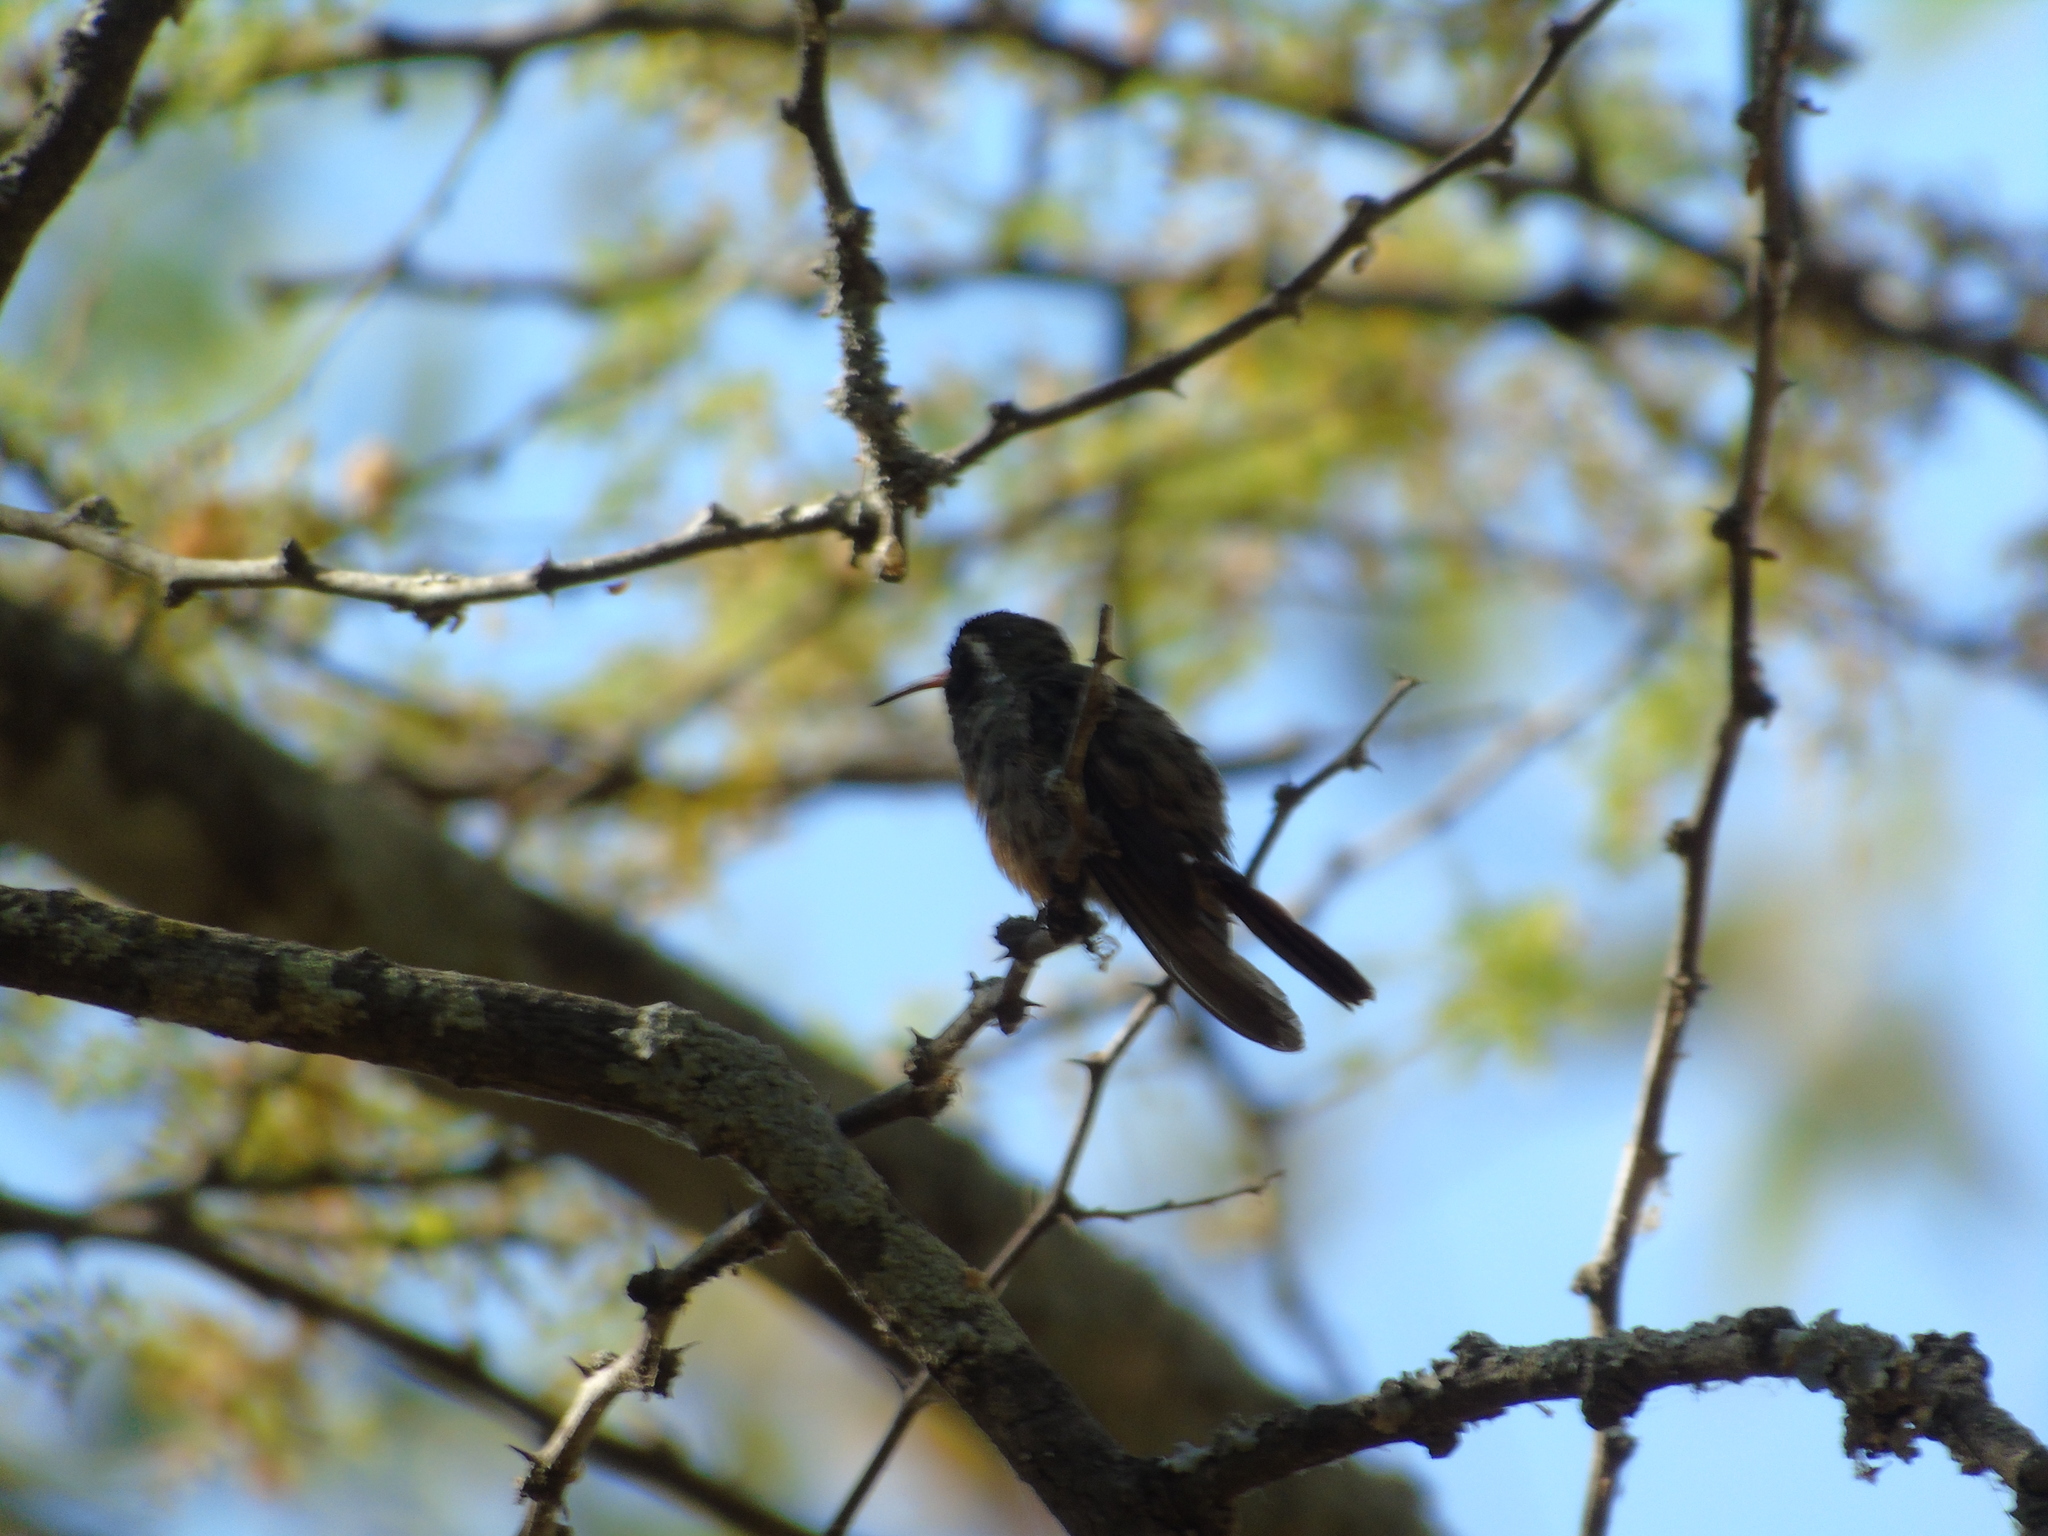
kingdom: Animalia
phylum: Chordata
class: Aves
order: Apodiformes
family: Trochilidae
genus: Basilinna
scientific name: Basilinna xantusii
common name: Xantus's hummingbird
